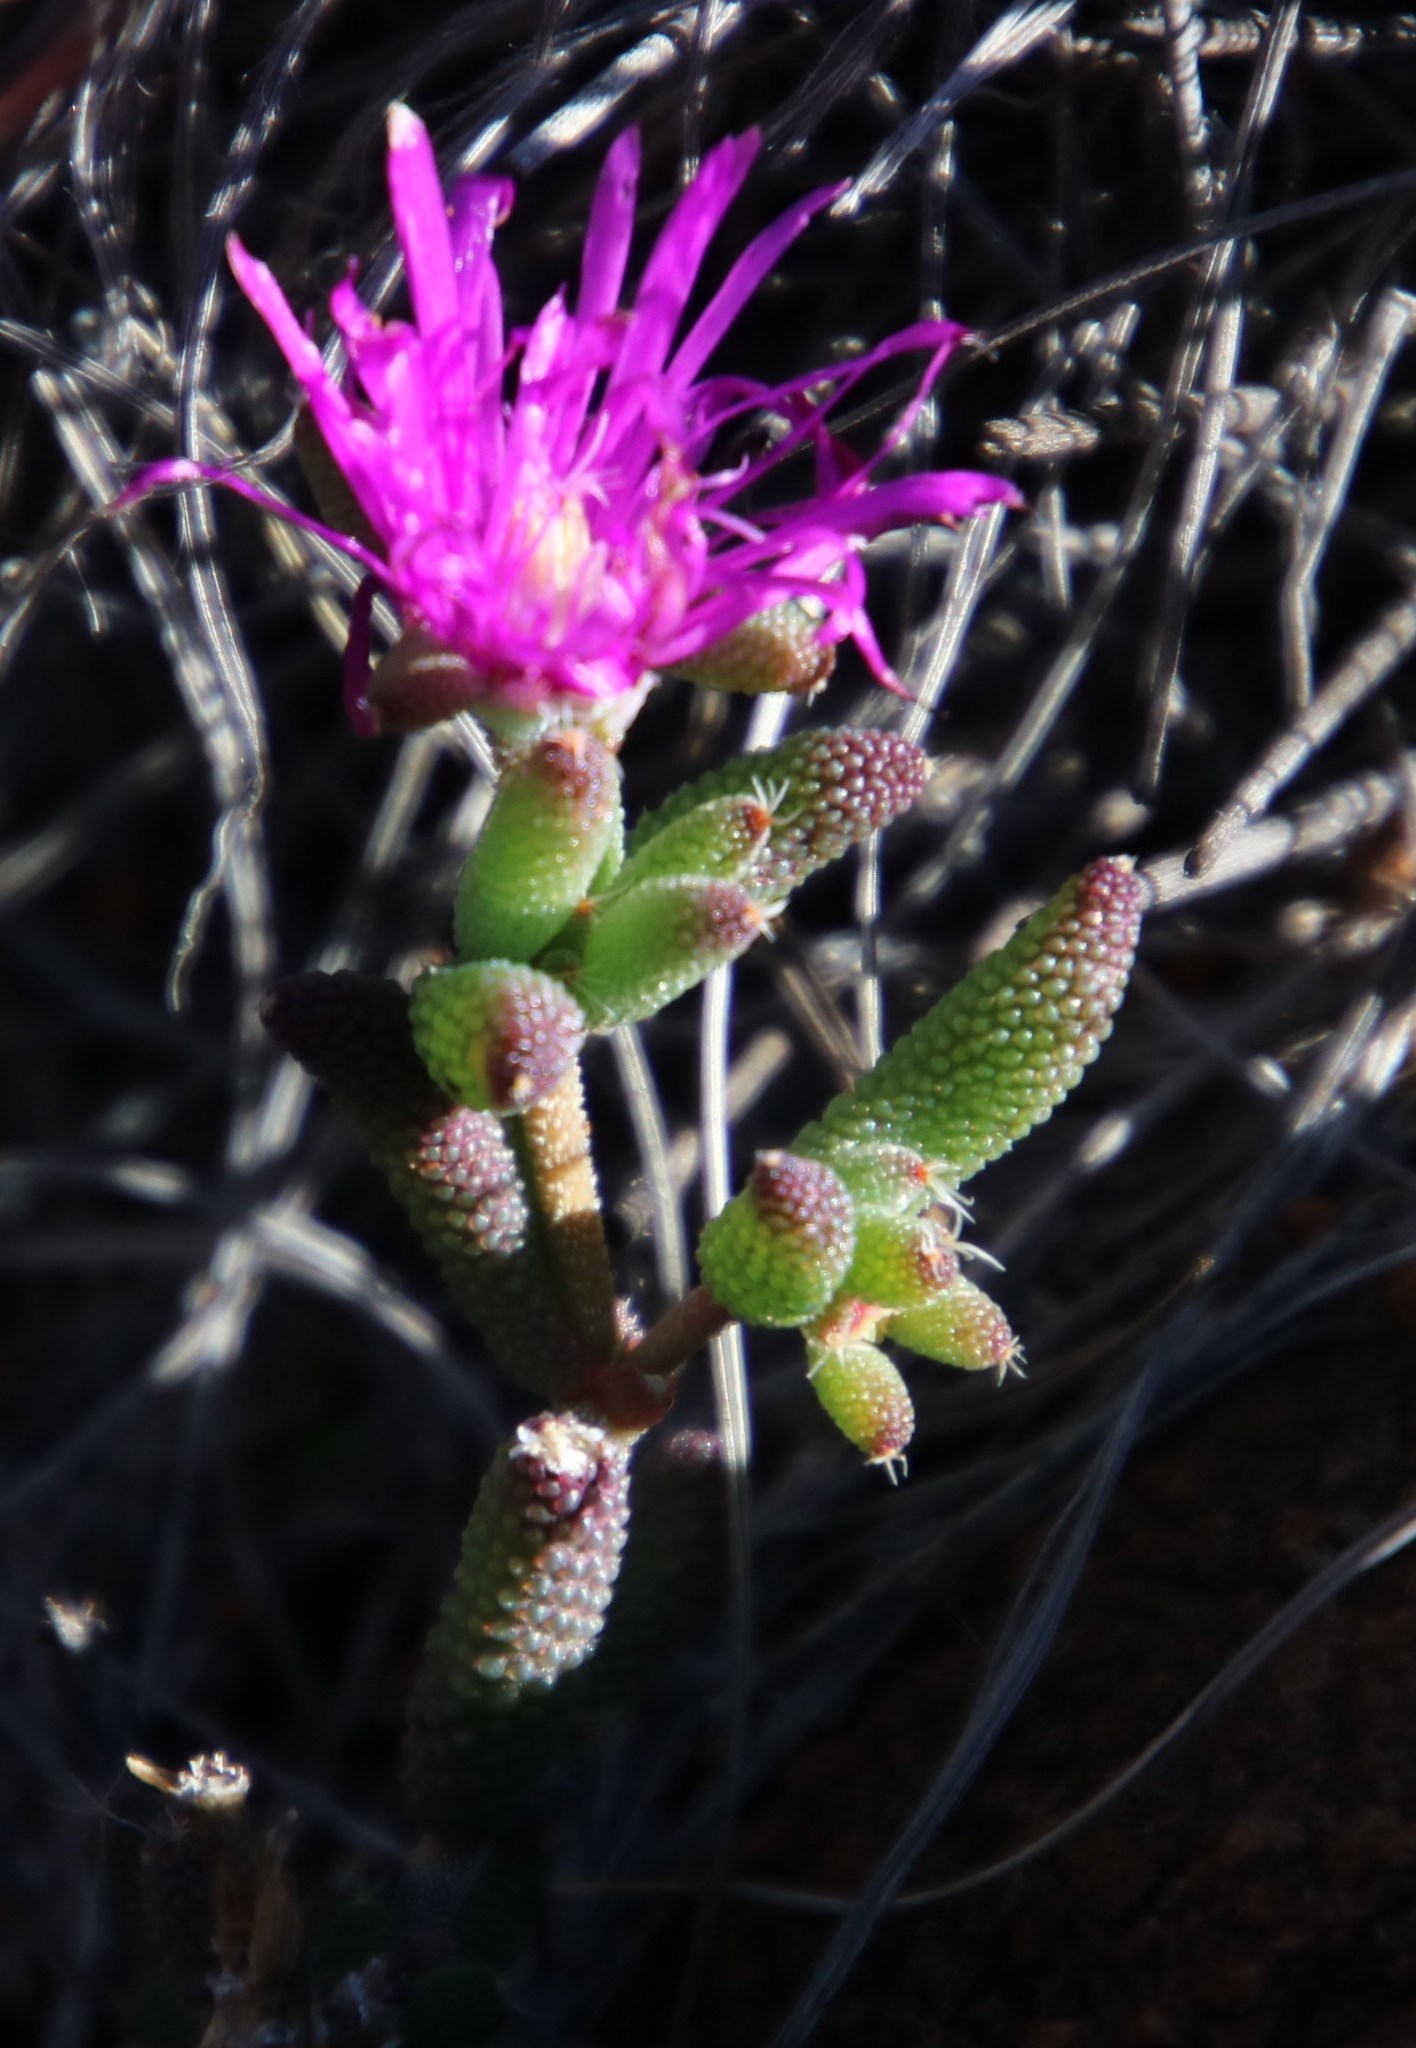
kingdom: Plantae
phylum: Tracheophyta
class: Magnoliopsida
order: Caryophyllales
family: Aizoaceae
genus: Trichodiadema
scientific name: Trichodiadema setuliferum
